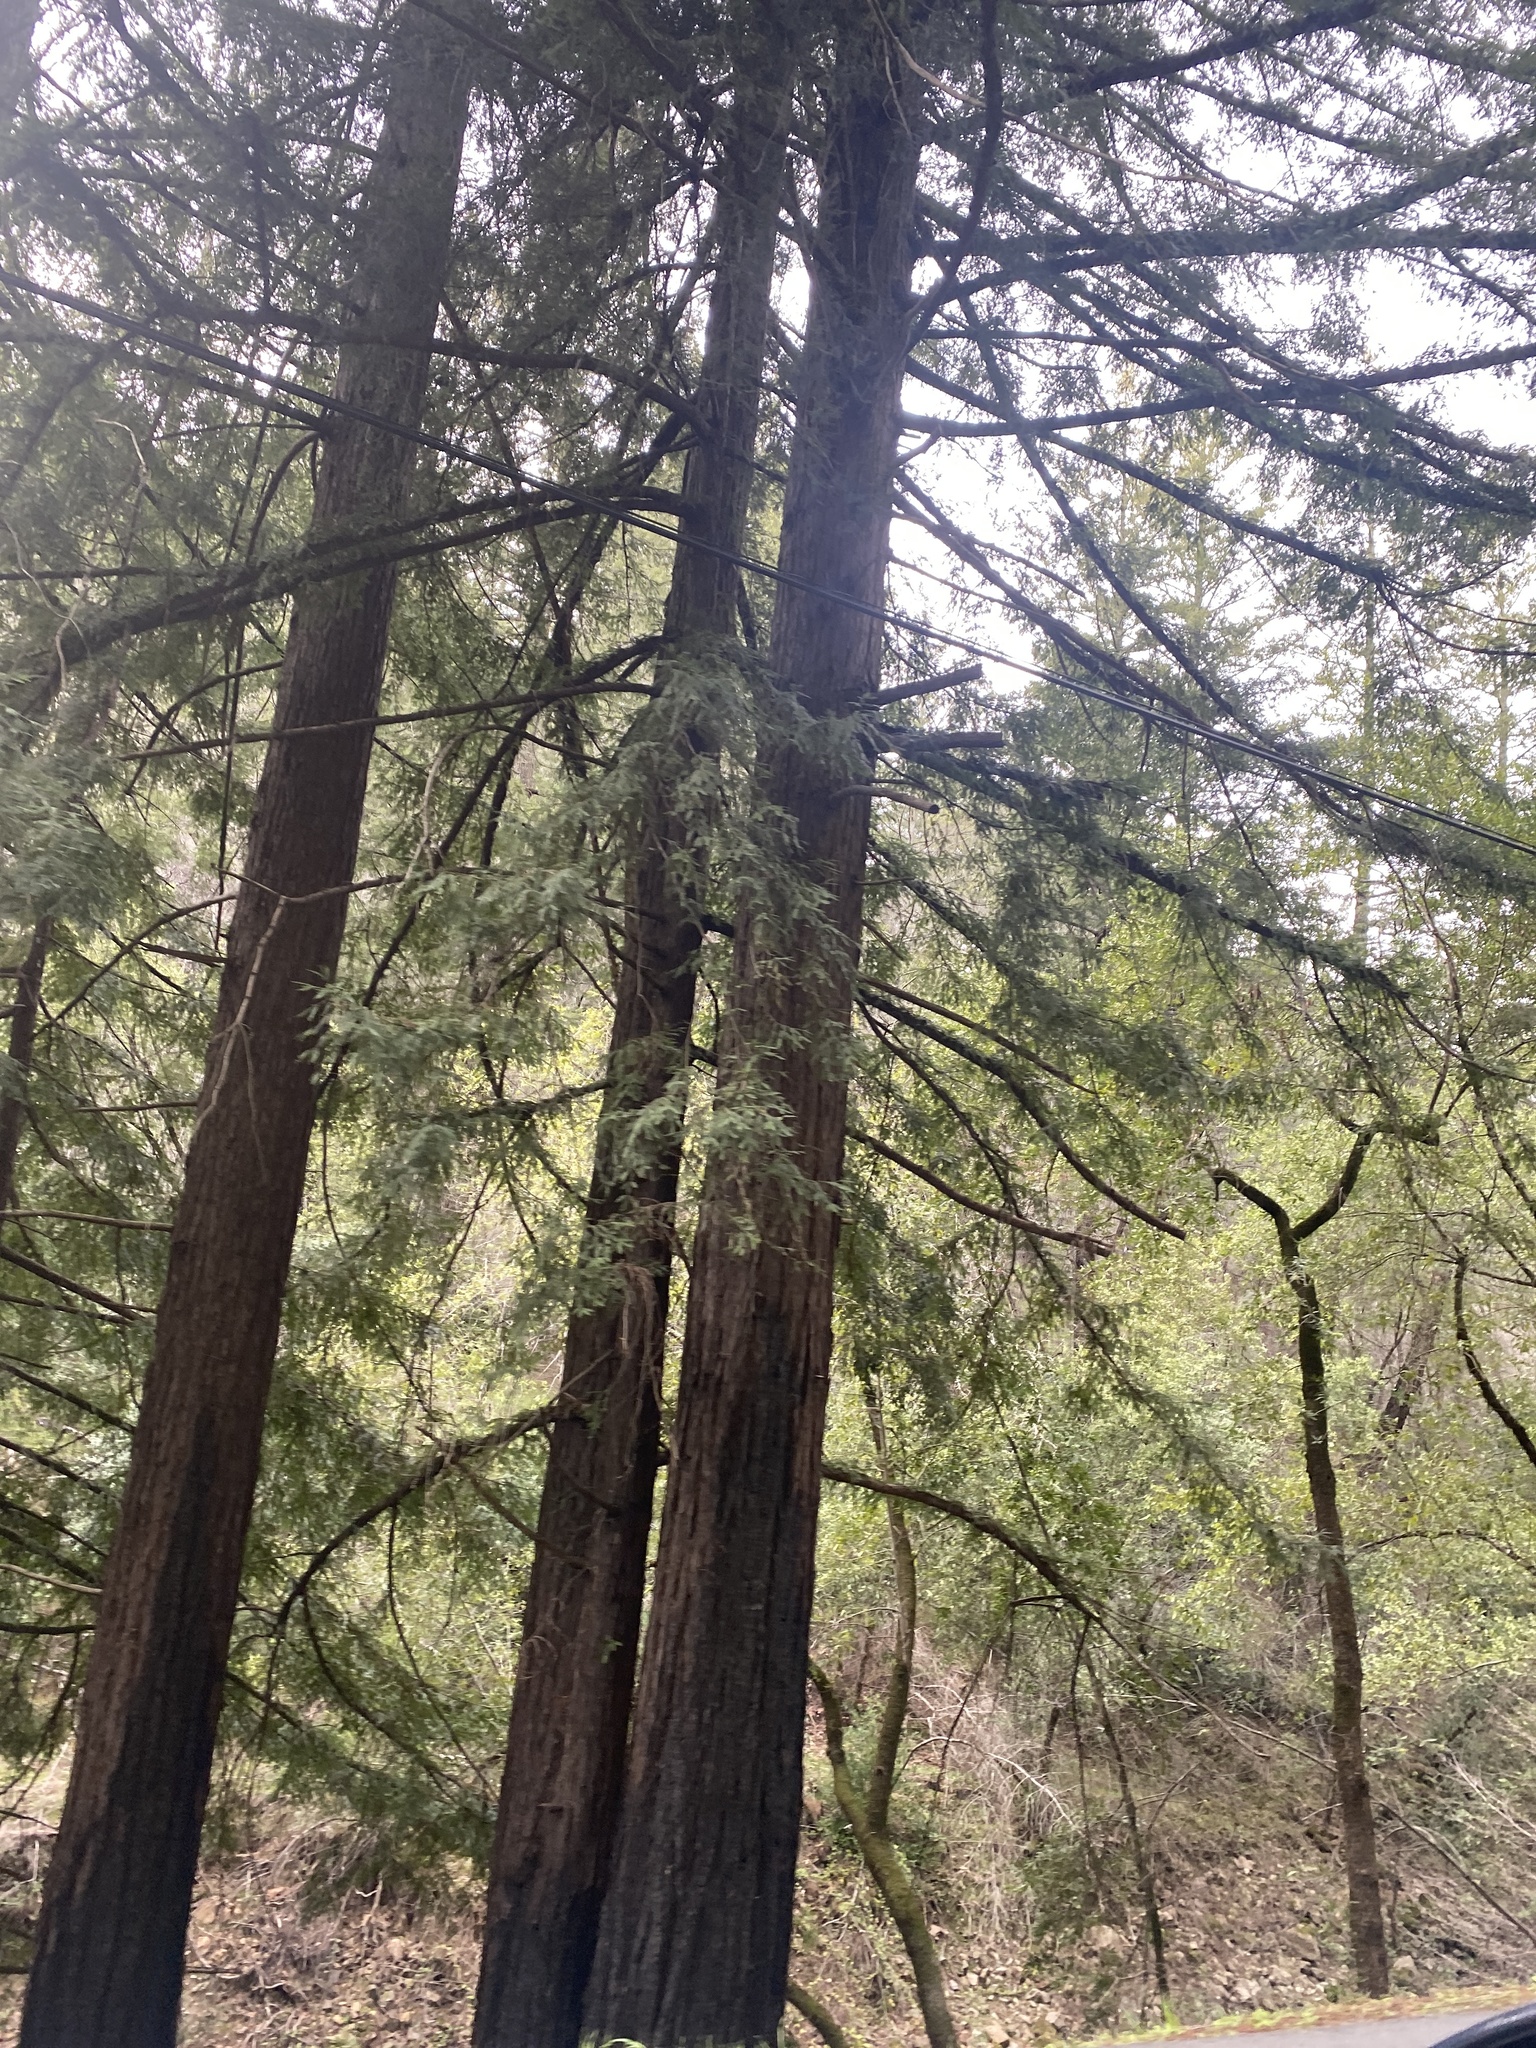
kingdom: Plantae
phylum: Tracheophyta
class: Pinopsida
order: Pinales
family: Cupressaceae
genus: Sequoia
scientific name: Sequoia sempervirens
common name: Coast redwood
